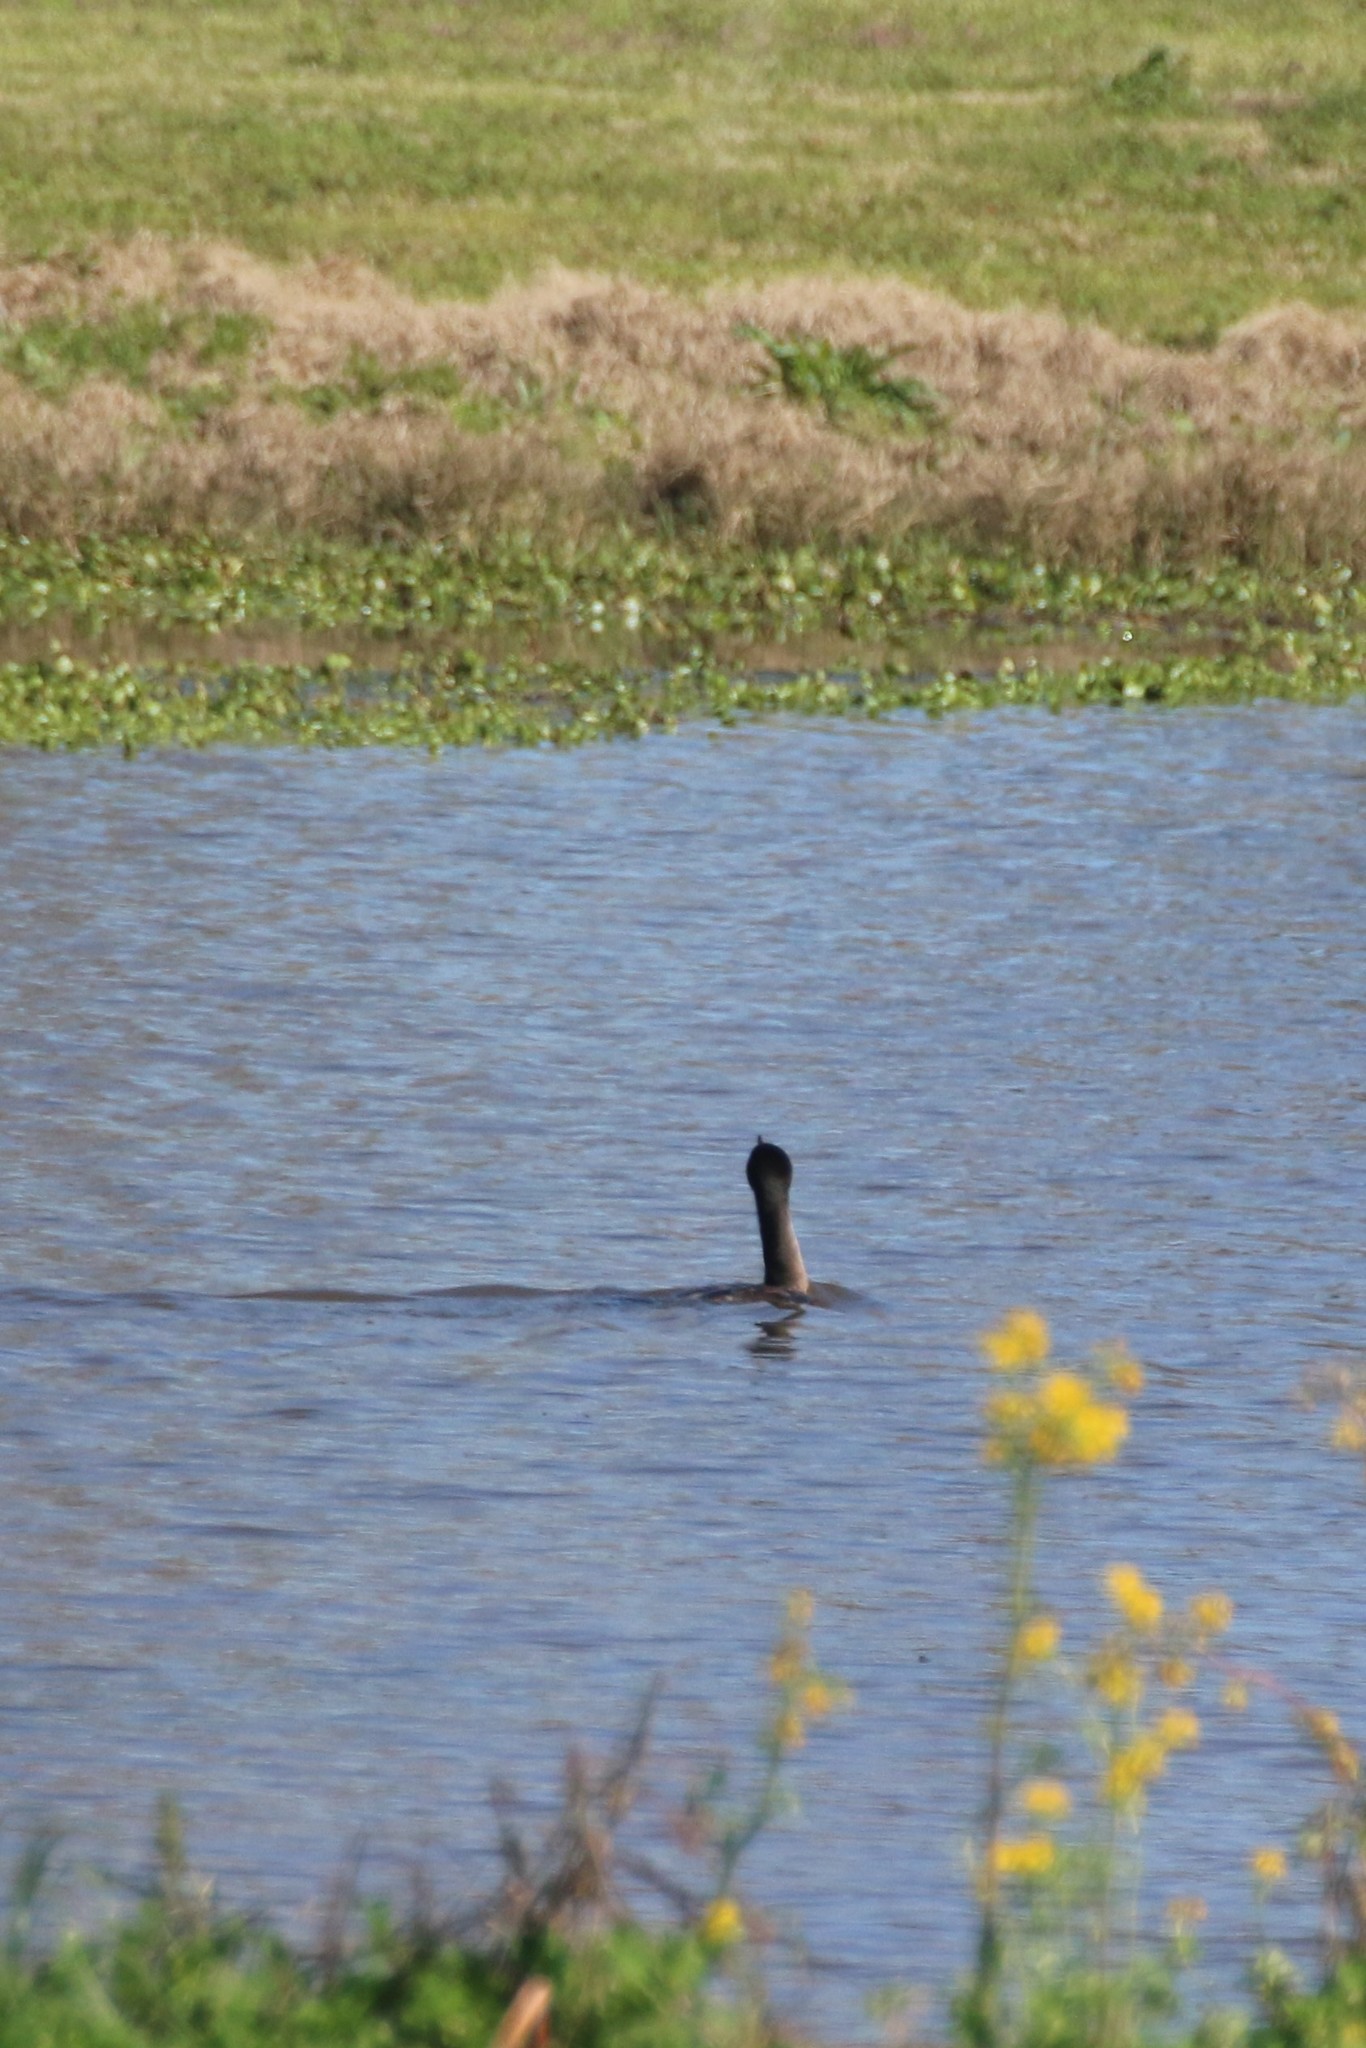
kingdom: Animalia
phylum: Chordata
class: Aves
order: Suliformes
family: Anhingidae
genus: Anhinga
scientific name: Anhinga anhinga
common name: Anhinga
